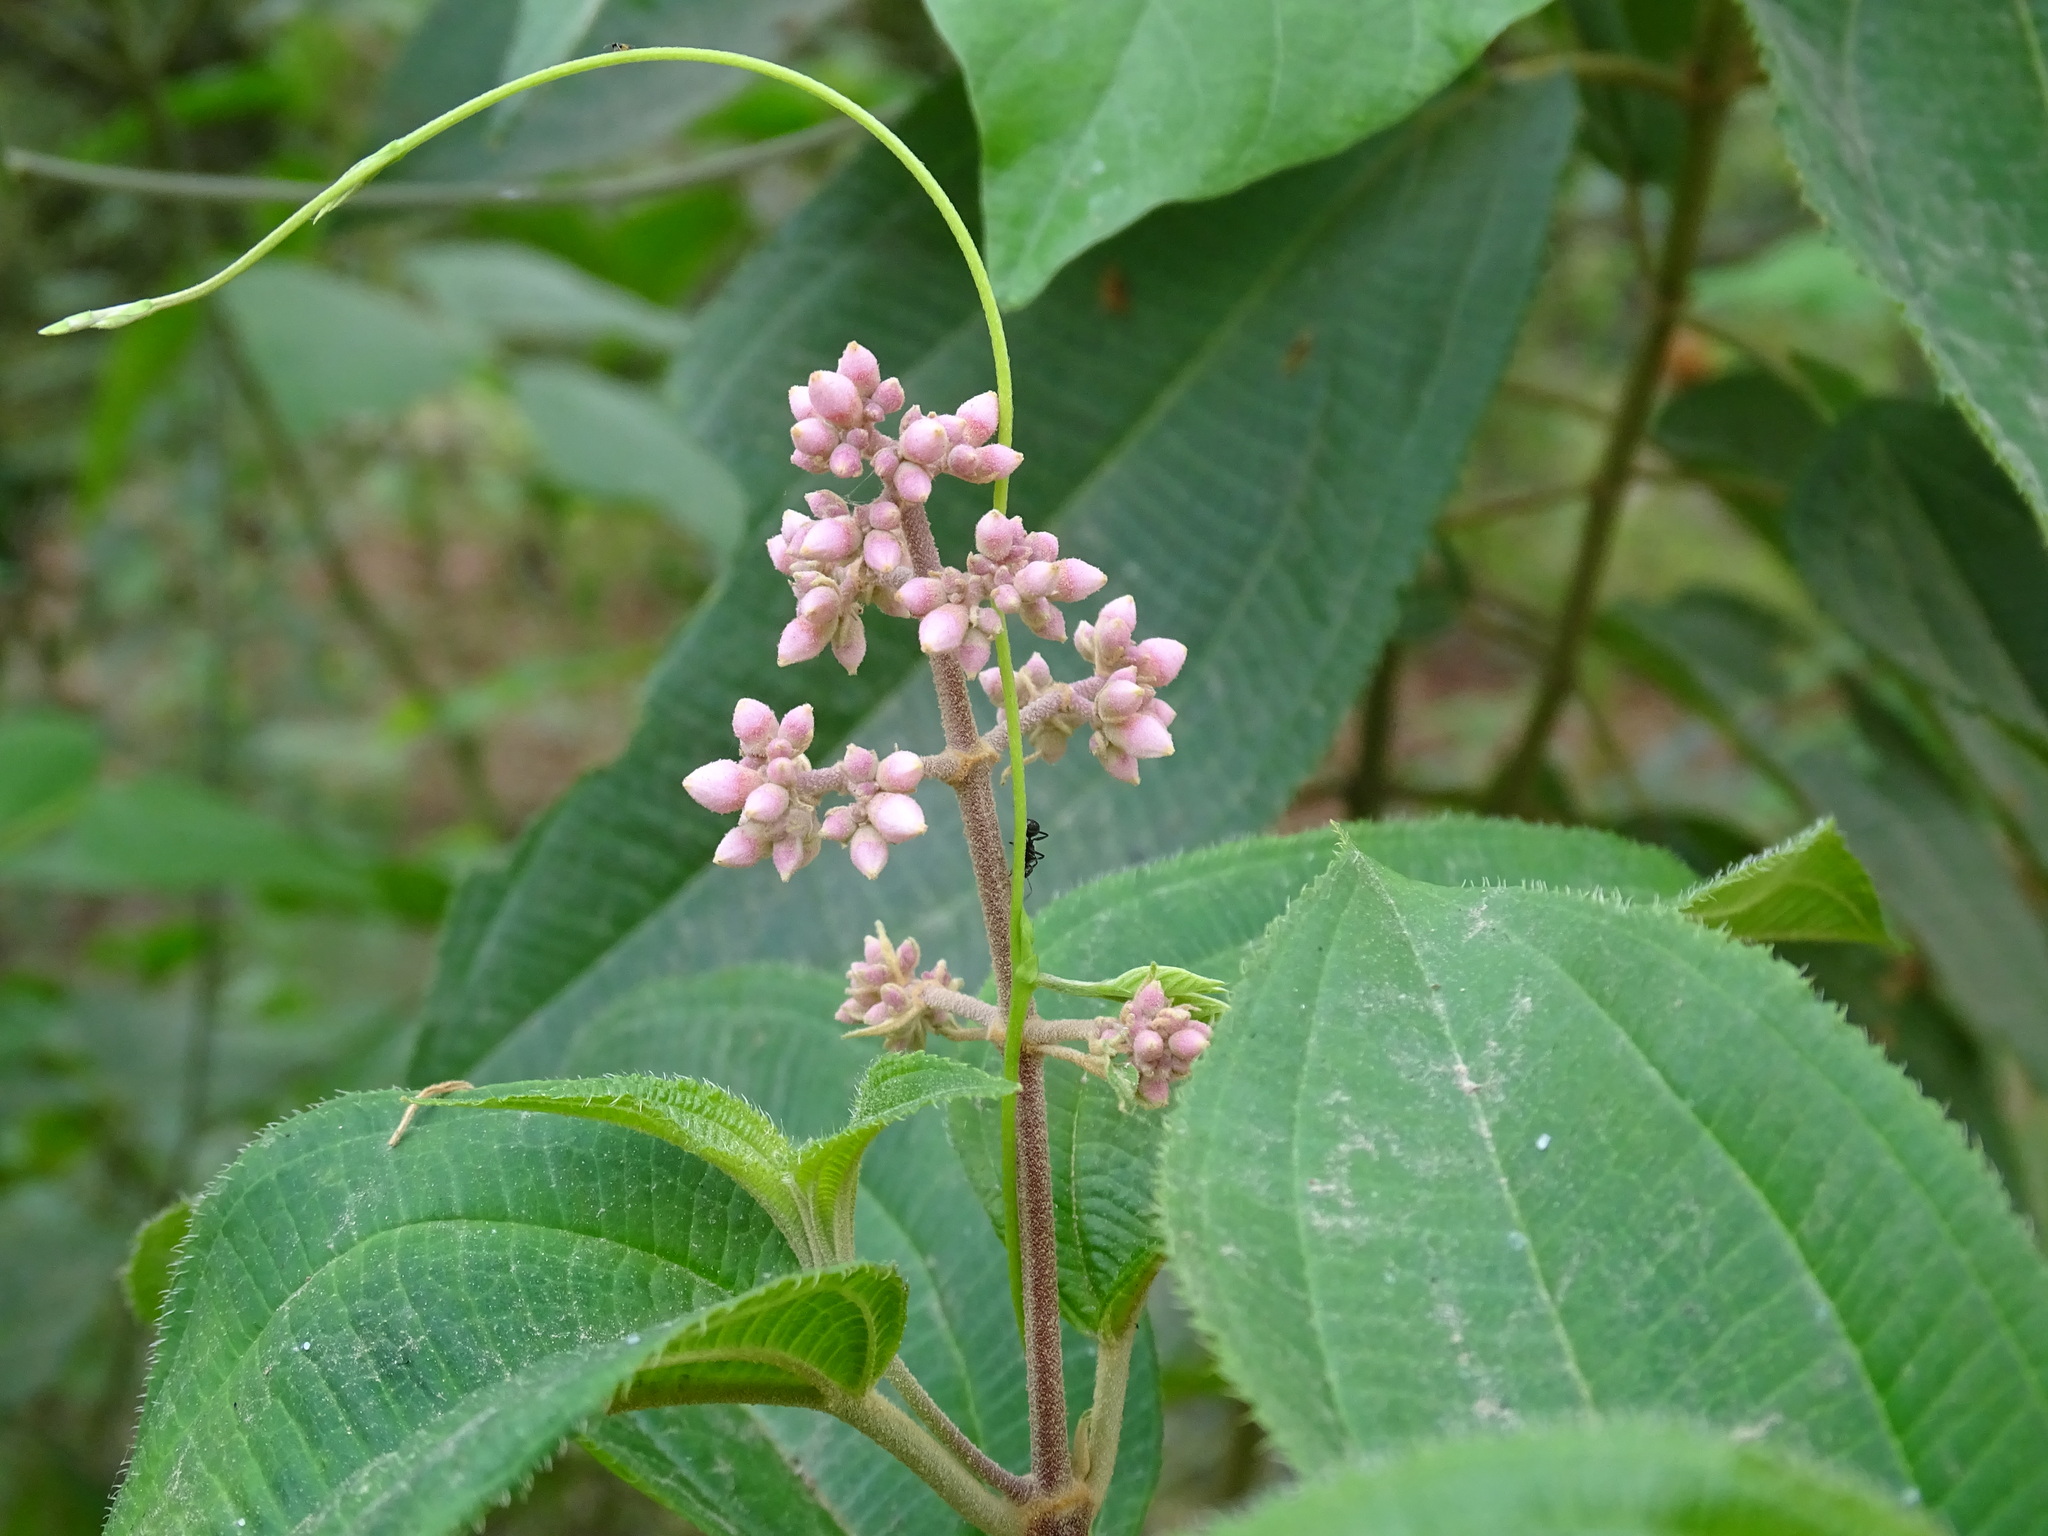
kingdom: Plantae
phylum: Tracheophyta
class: Magnoliopsida
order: Myrtales
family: Melastomataceae
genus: Miconia
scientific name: Miconia xalapensis
